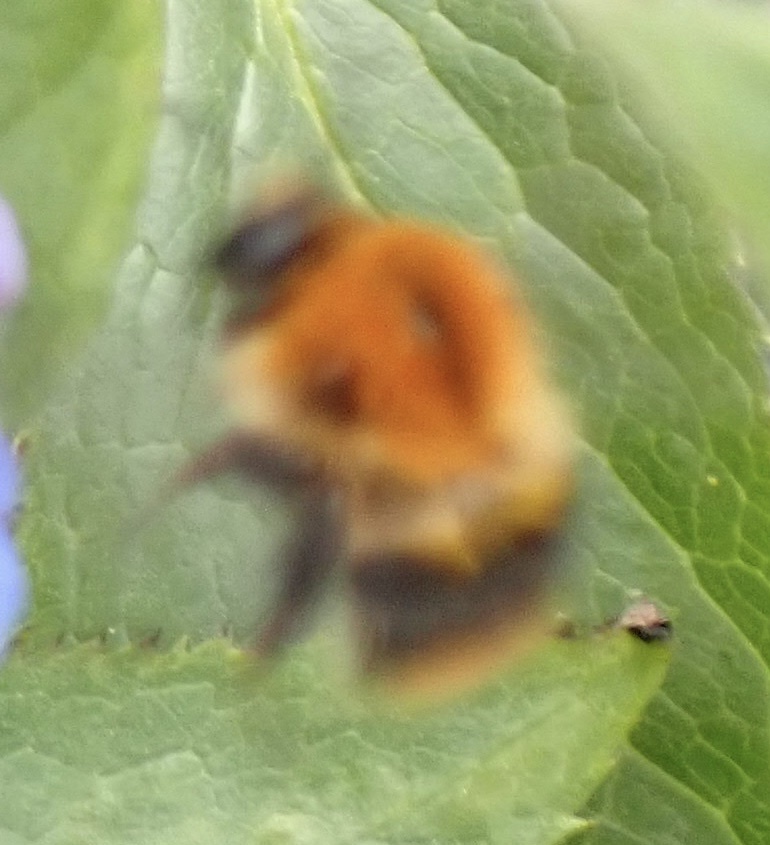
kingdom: Animalia
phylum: Arthropoda
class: Insecta
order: Hymenoptera
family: Apidae
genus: Bombus
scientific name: Bombus pascuorum
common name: Common carder bee
